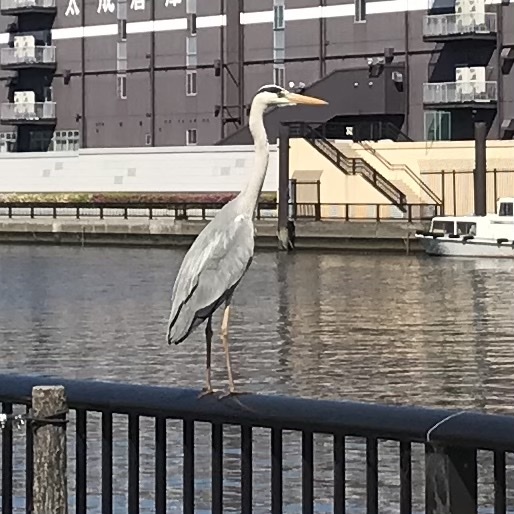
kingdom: Animalia
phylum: Chordata
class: Aves
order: Pelecaniformes
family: Ardeidae
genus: Ardea
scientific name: Ardea cinerea
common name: Grey heron
